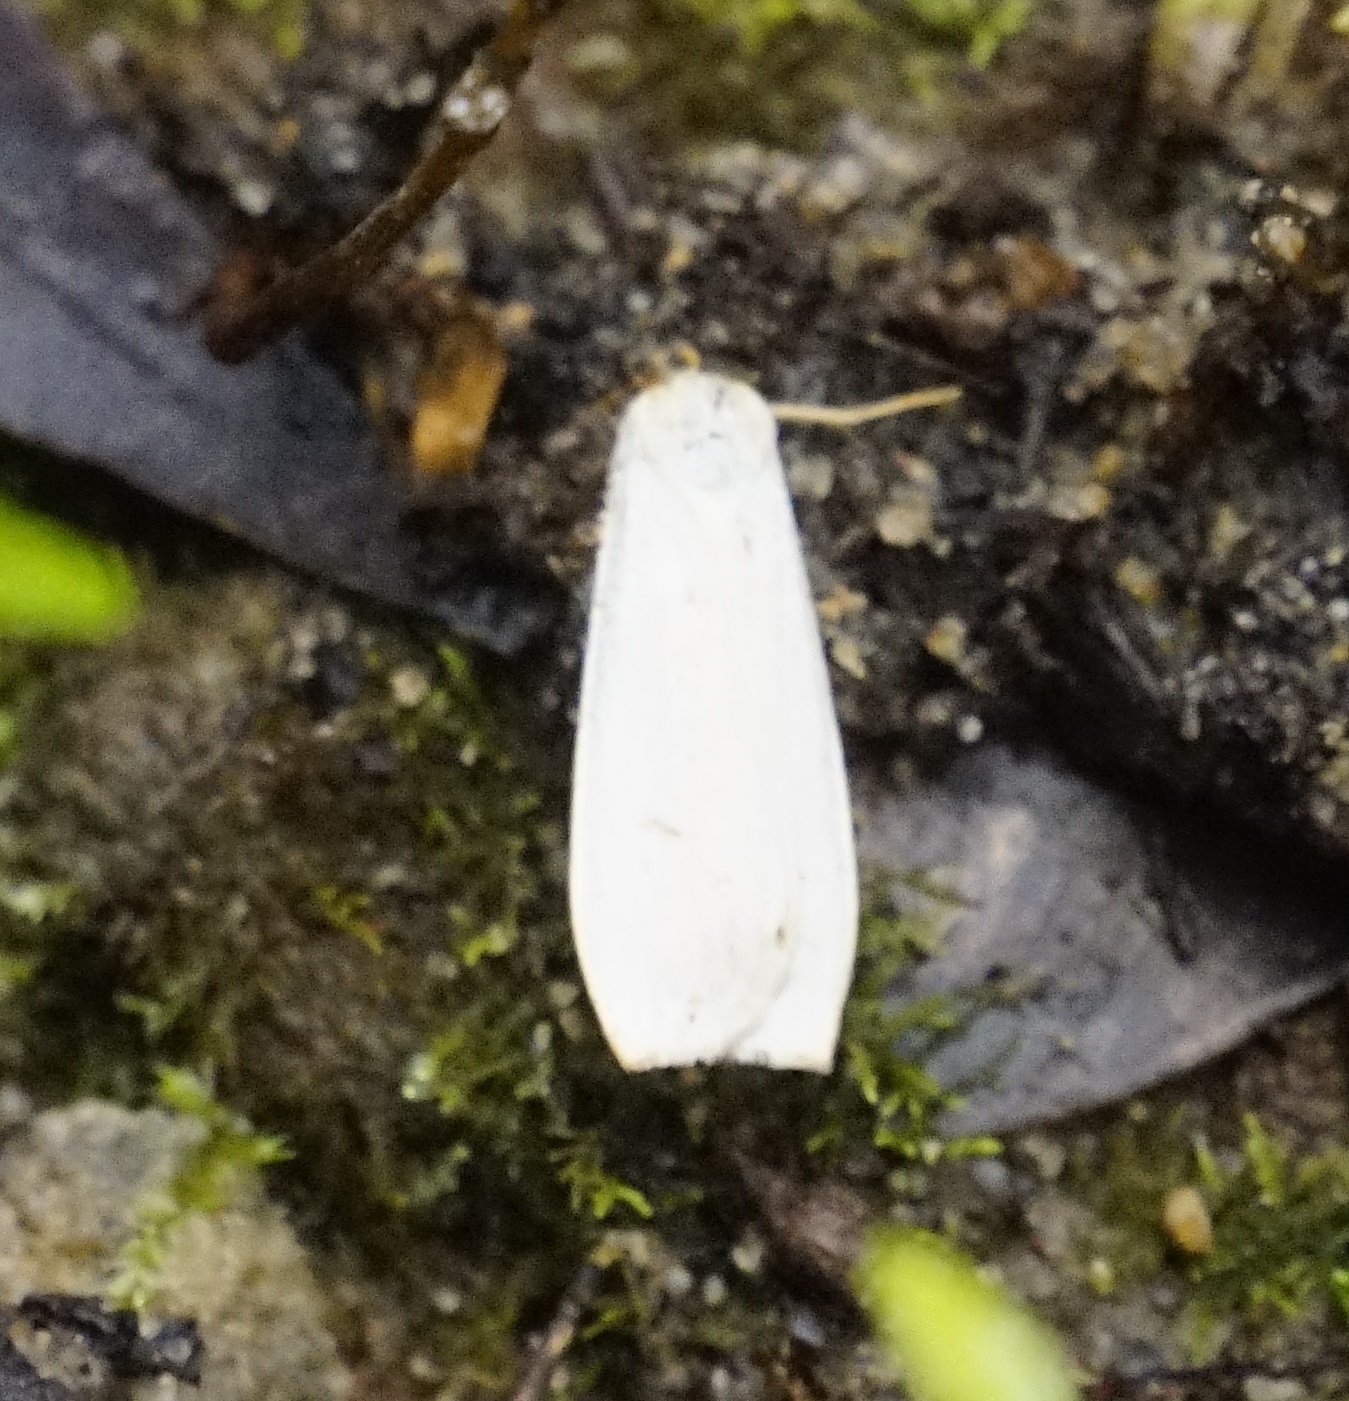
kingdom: Animalia
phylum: Arthropoda
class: Insecta
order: Lepidoptera
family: Erebidae
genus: Hesychopa
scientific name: Hesychopa chionora
